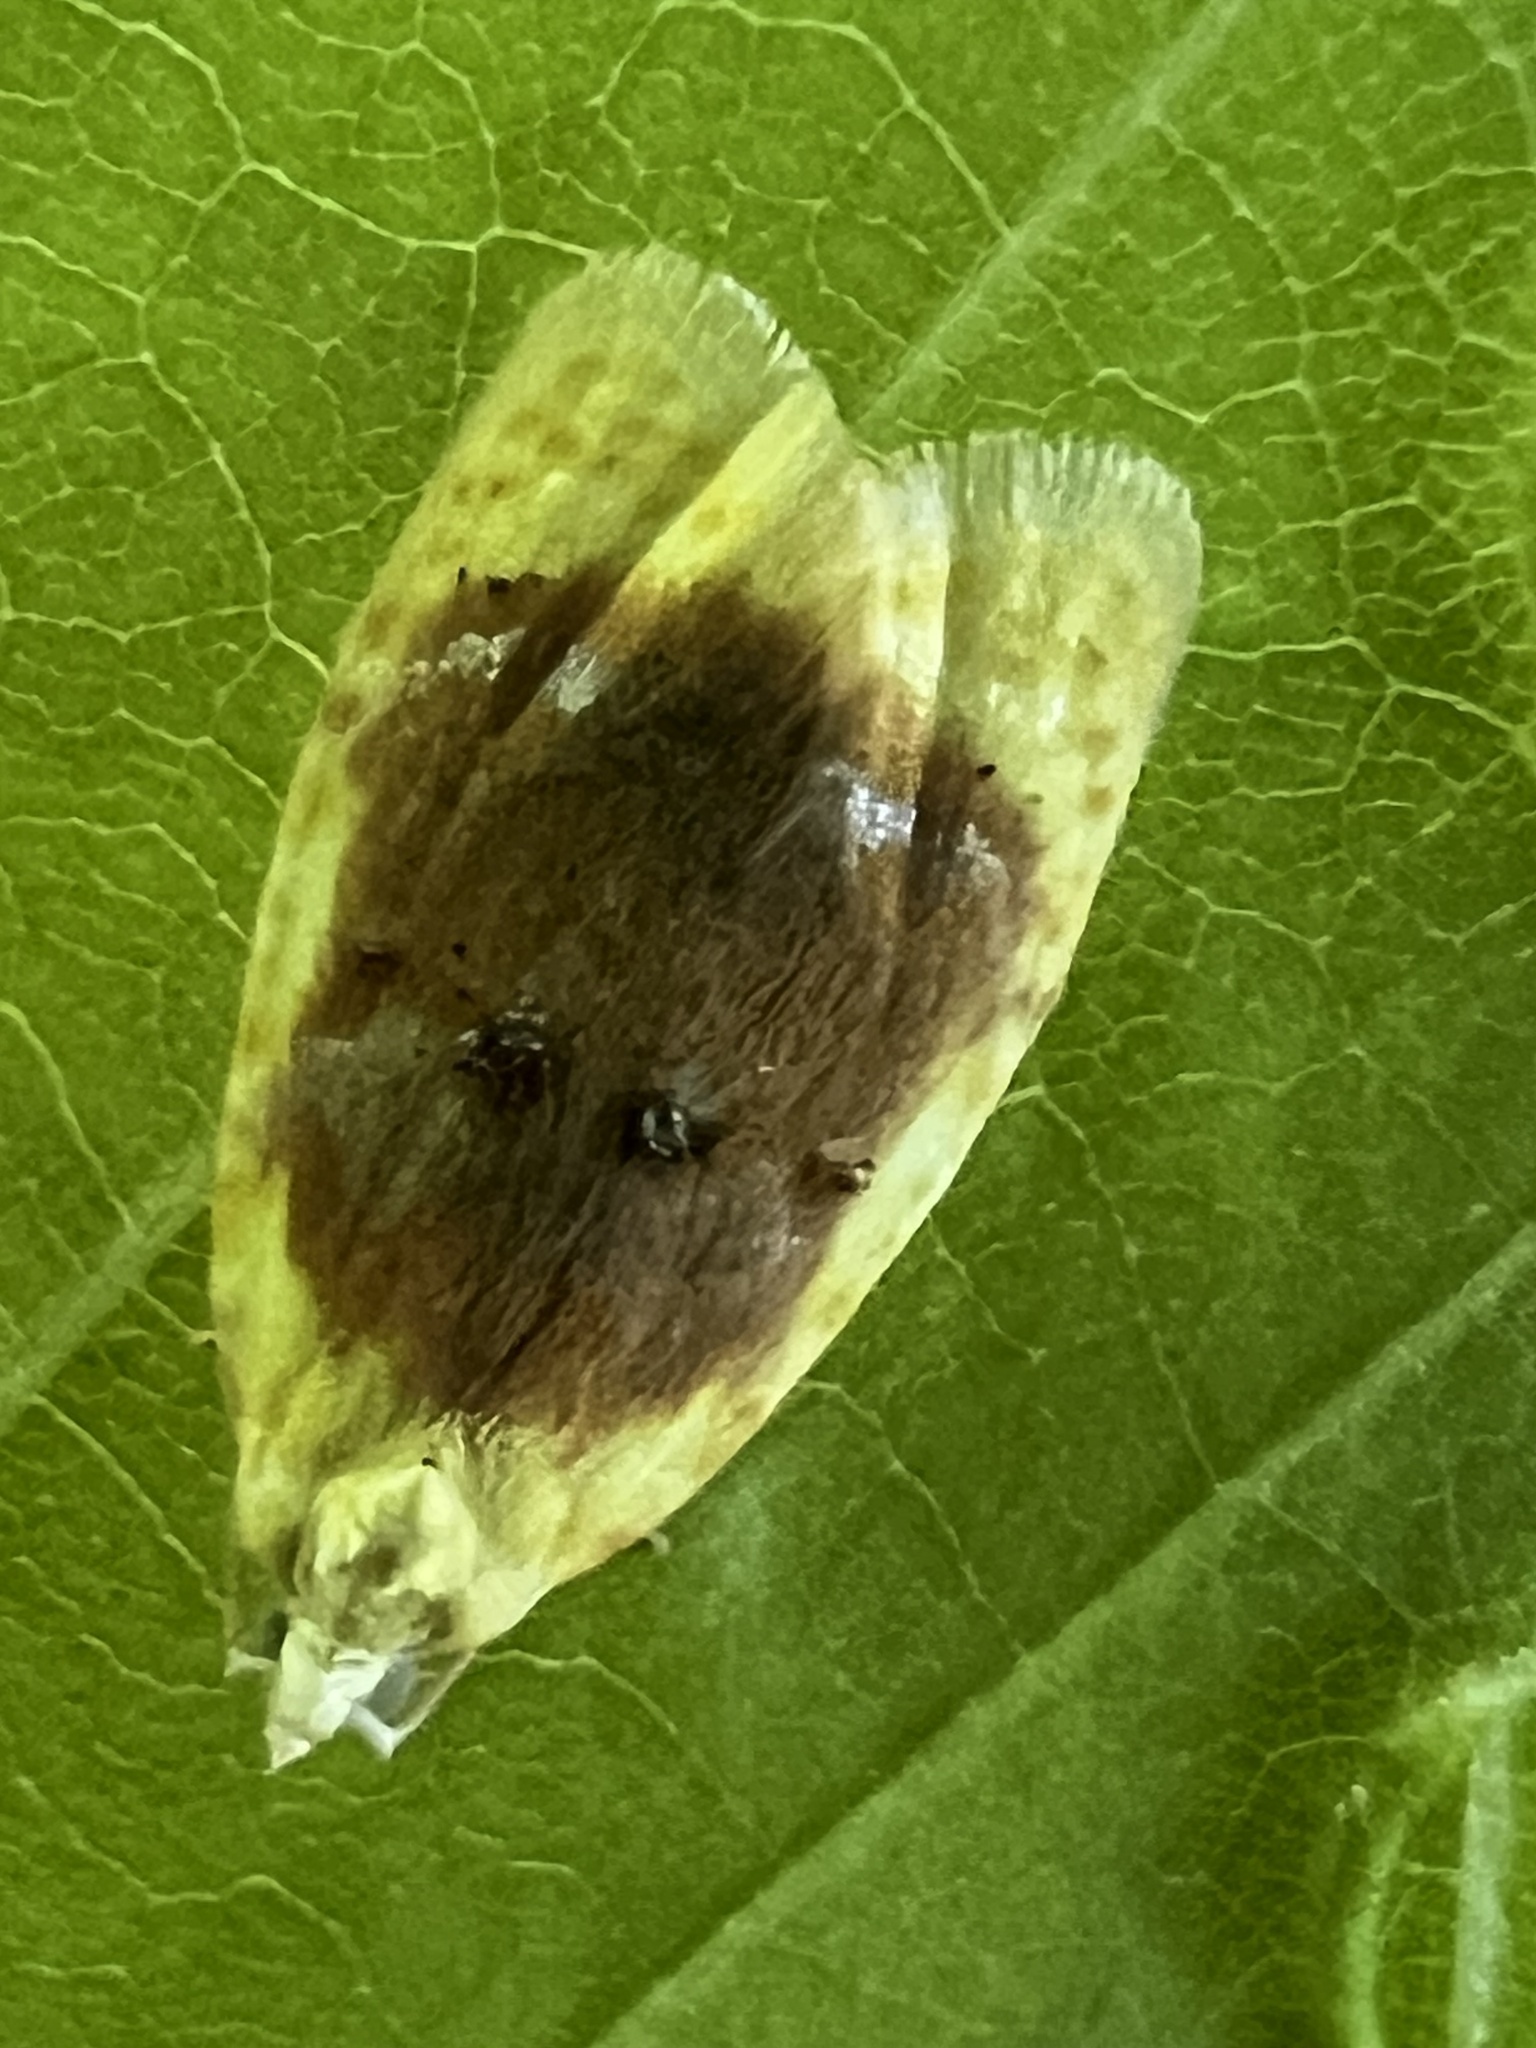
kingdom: Animalia
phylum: Arthropoda
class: Insecta
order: Lepidoptera
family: Tortricidae
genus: Acleris
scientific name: Acleris semipurpurana
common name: Oak leaftier moth
